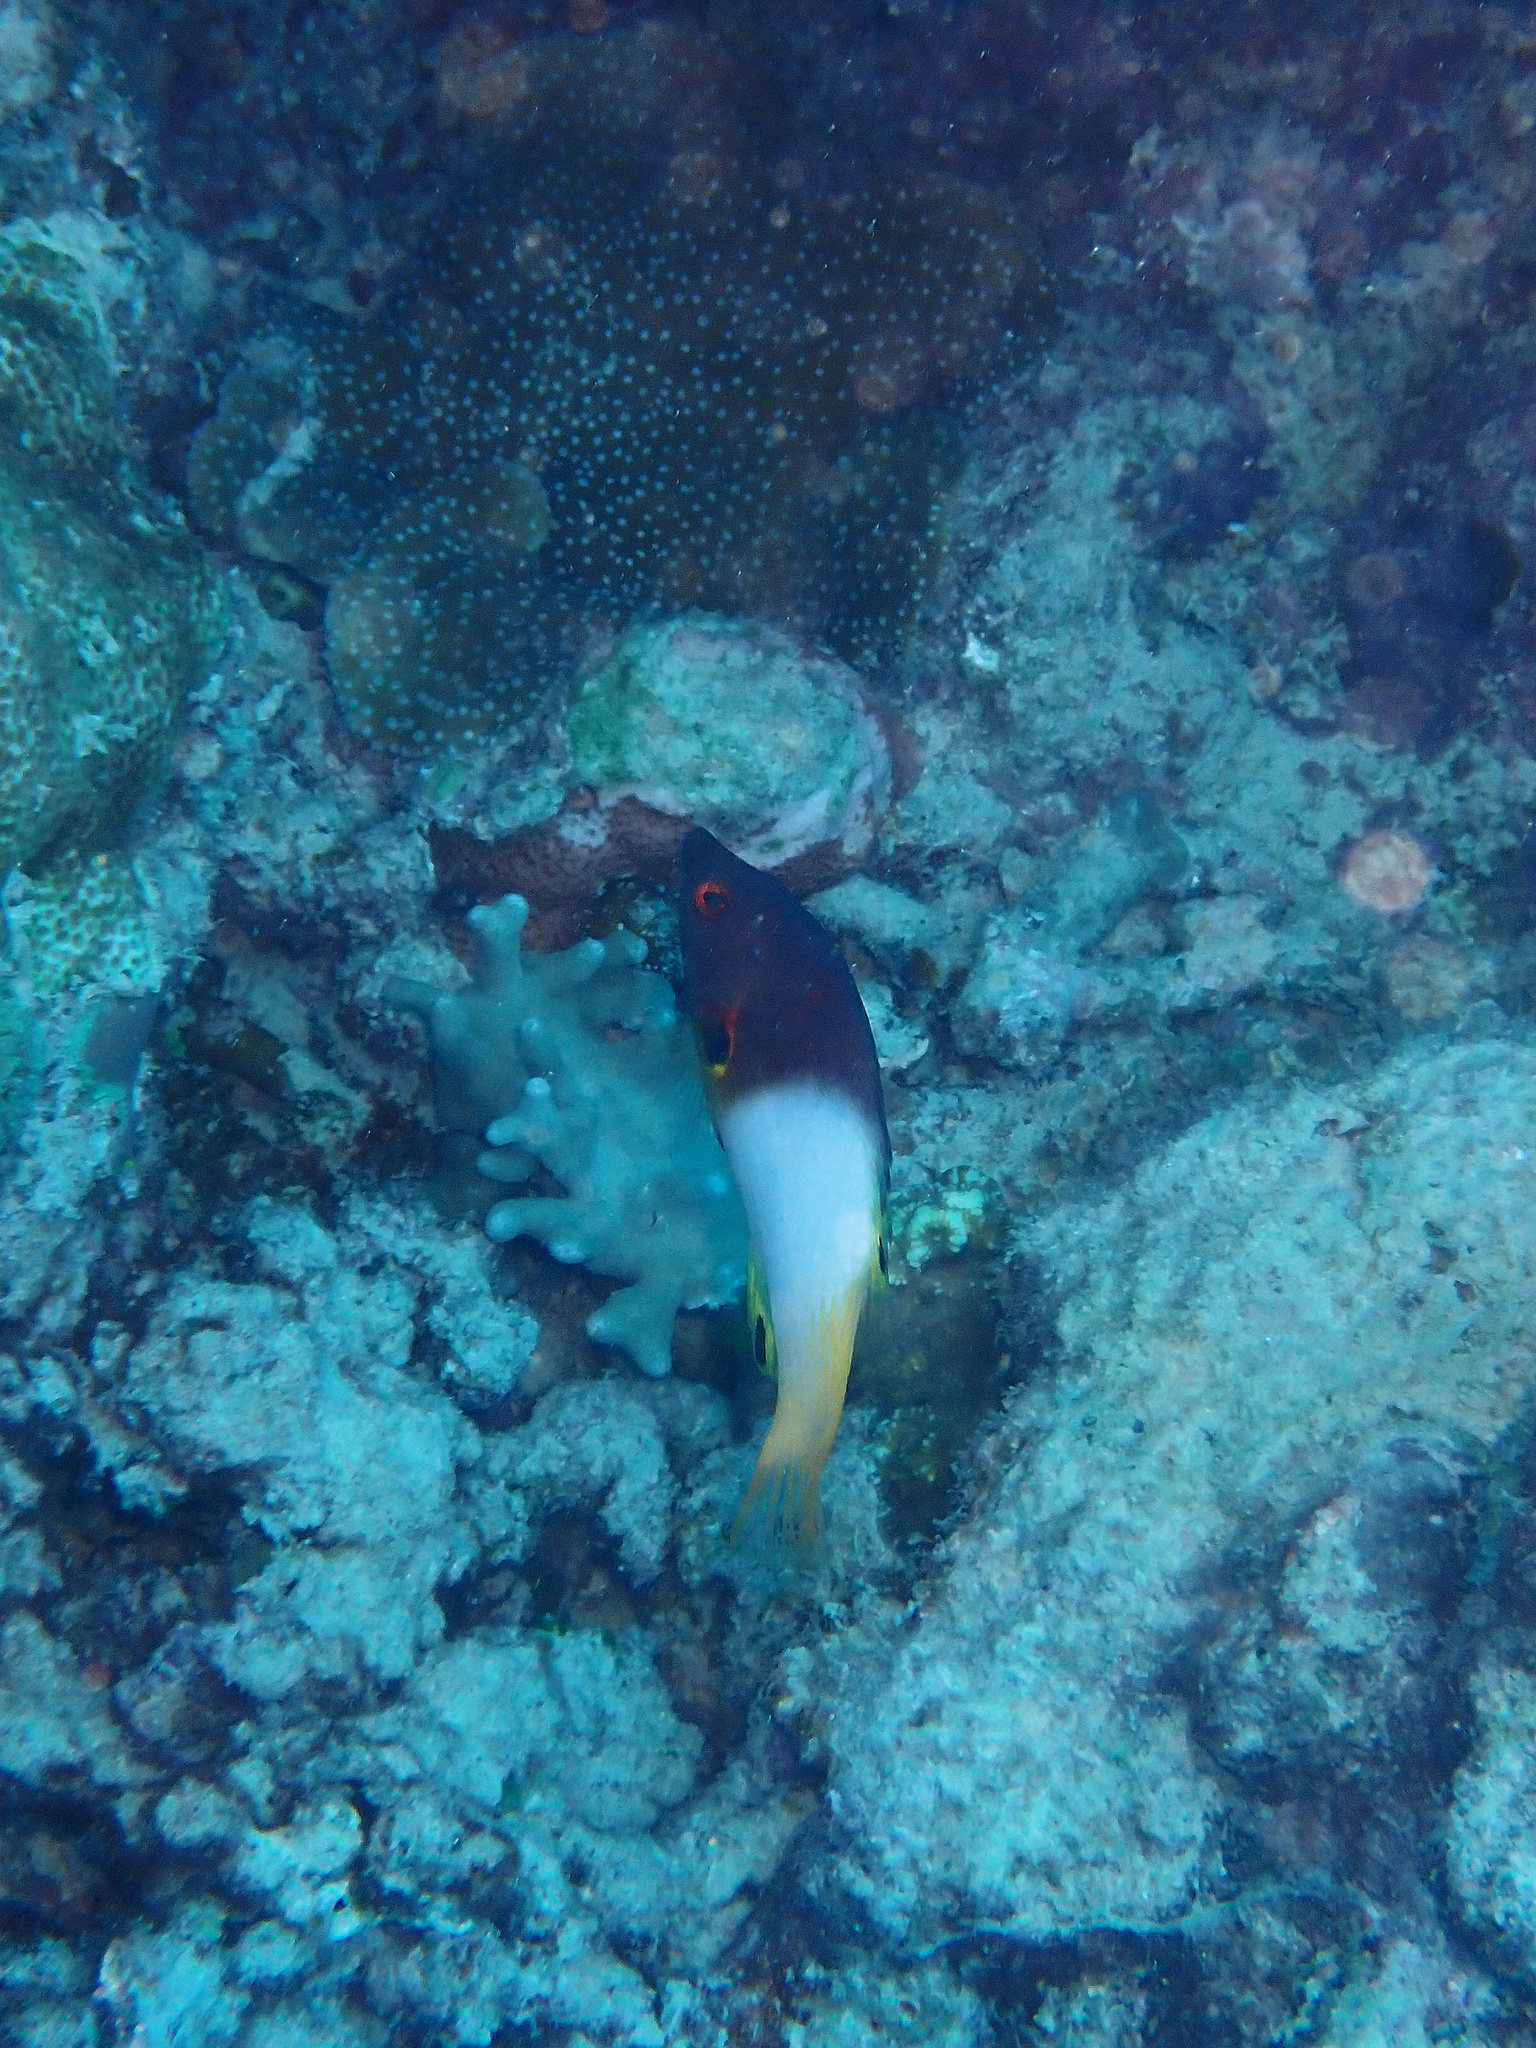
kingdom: Animalia
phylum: Chordata
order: Perciformes
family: Labridae
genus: Bodianus
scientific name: Bodianus axillaris
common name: Axilspot hogfish
